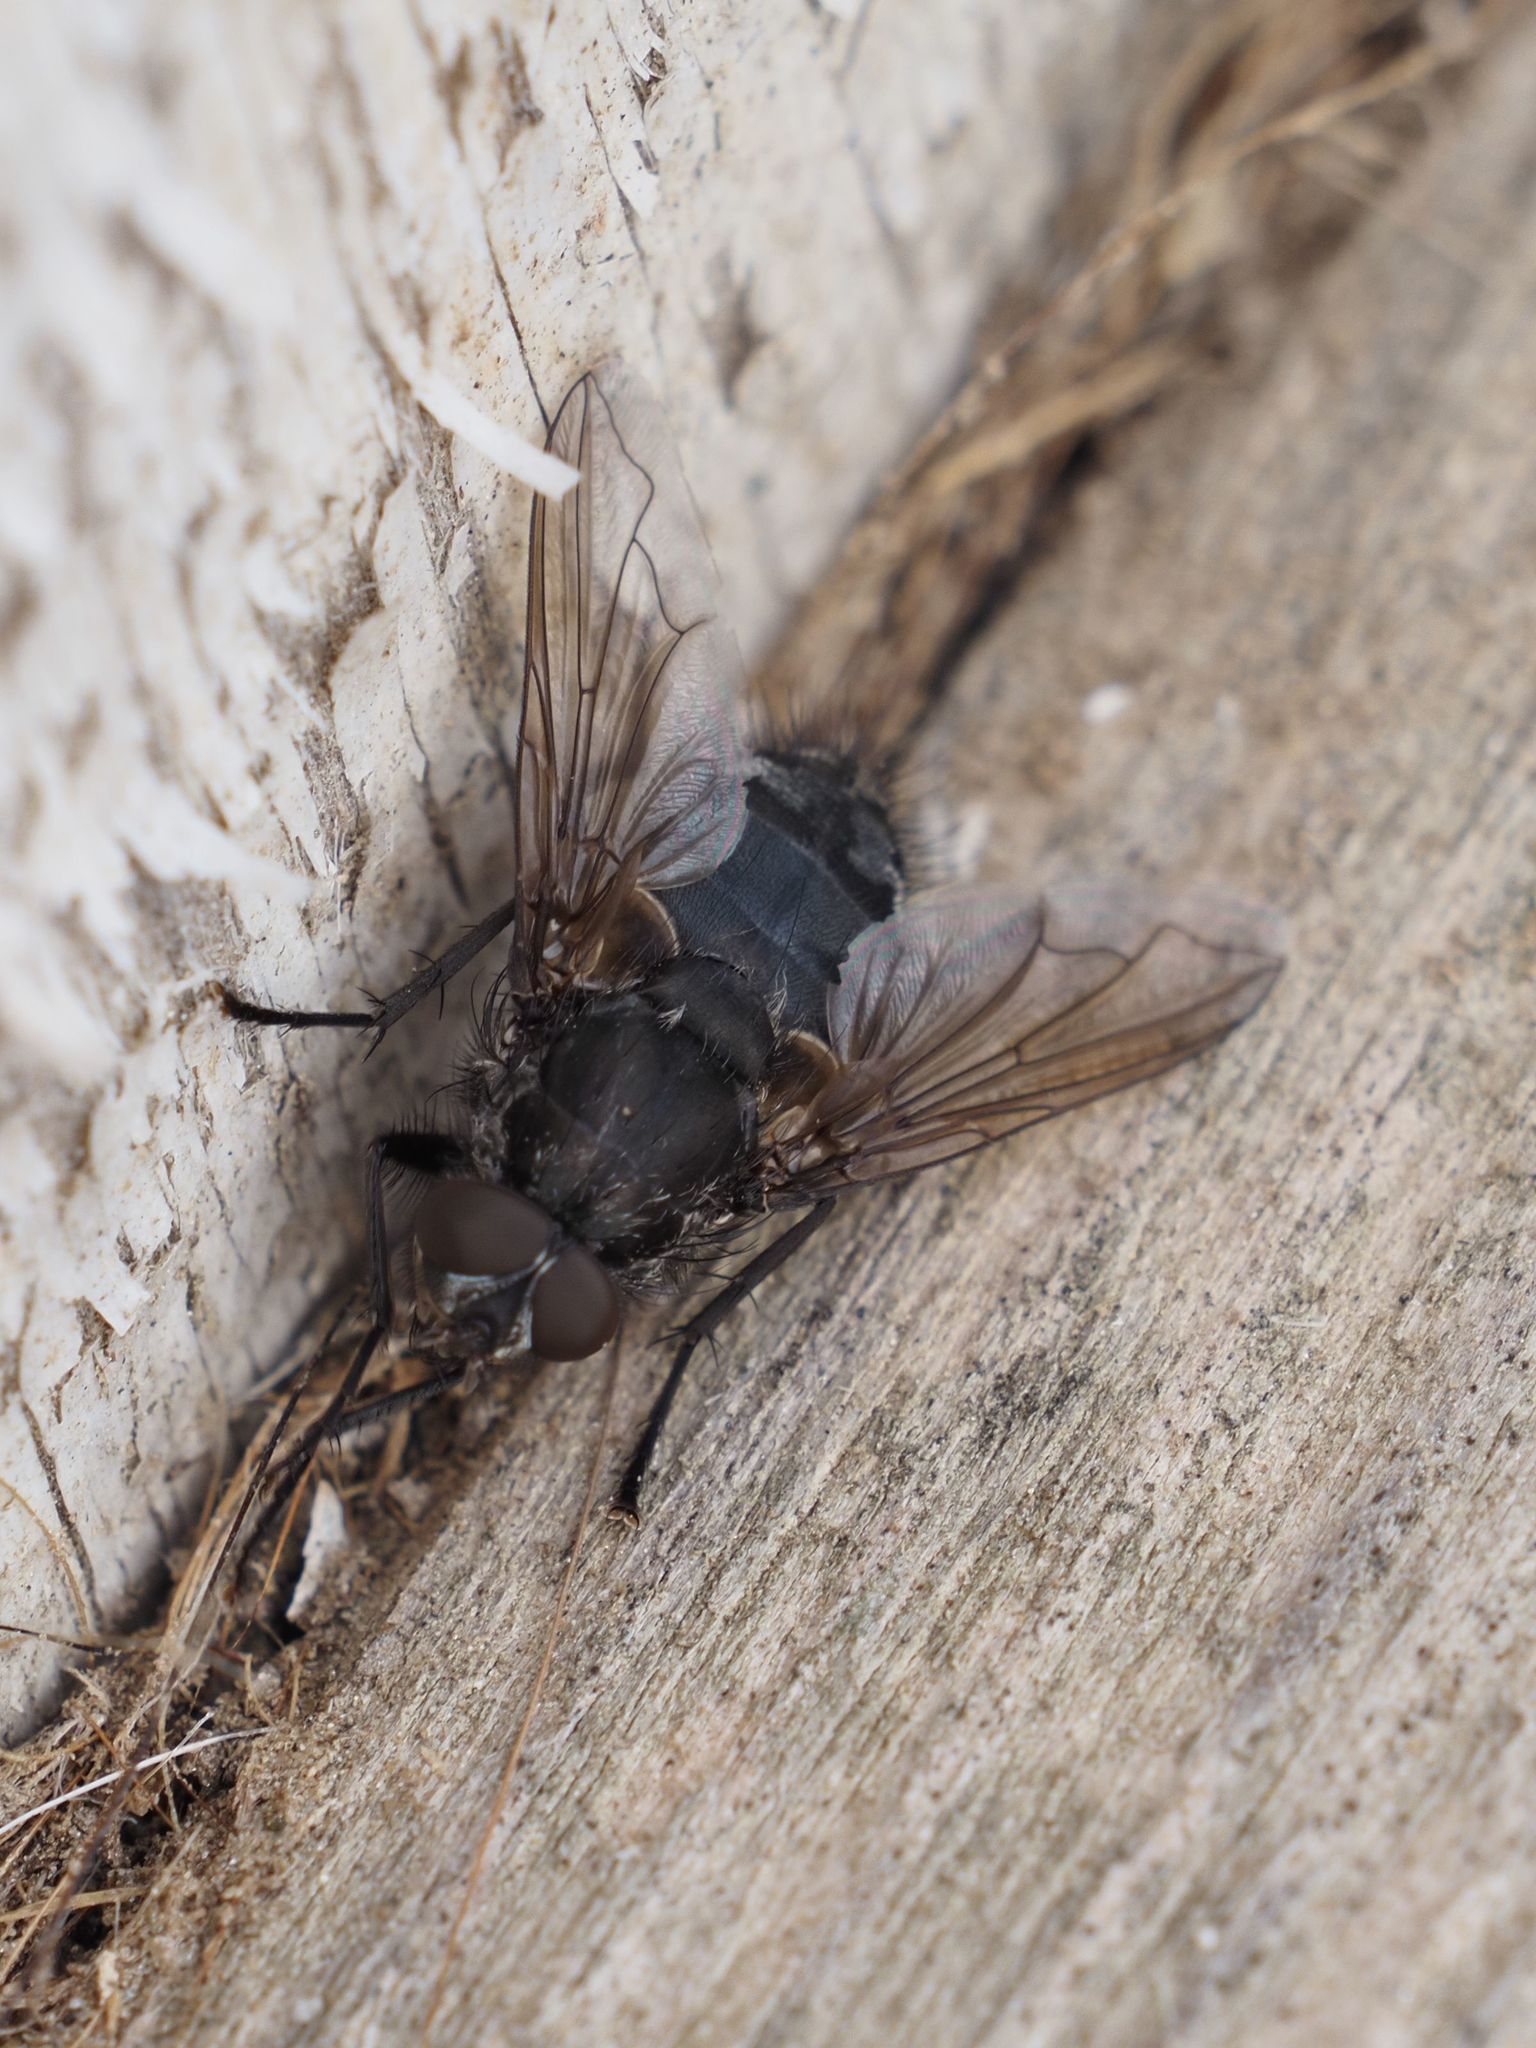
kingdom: Animalia
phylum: Arthropoda
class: Insecta
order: Diptera
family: Polleniidae
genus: Pollenia
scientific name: Pollenia vagabunda
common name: Vagabund cluster fly
